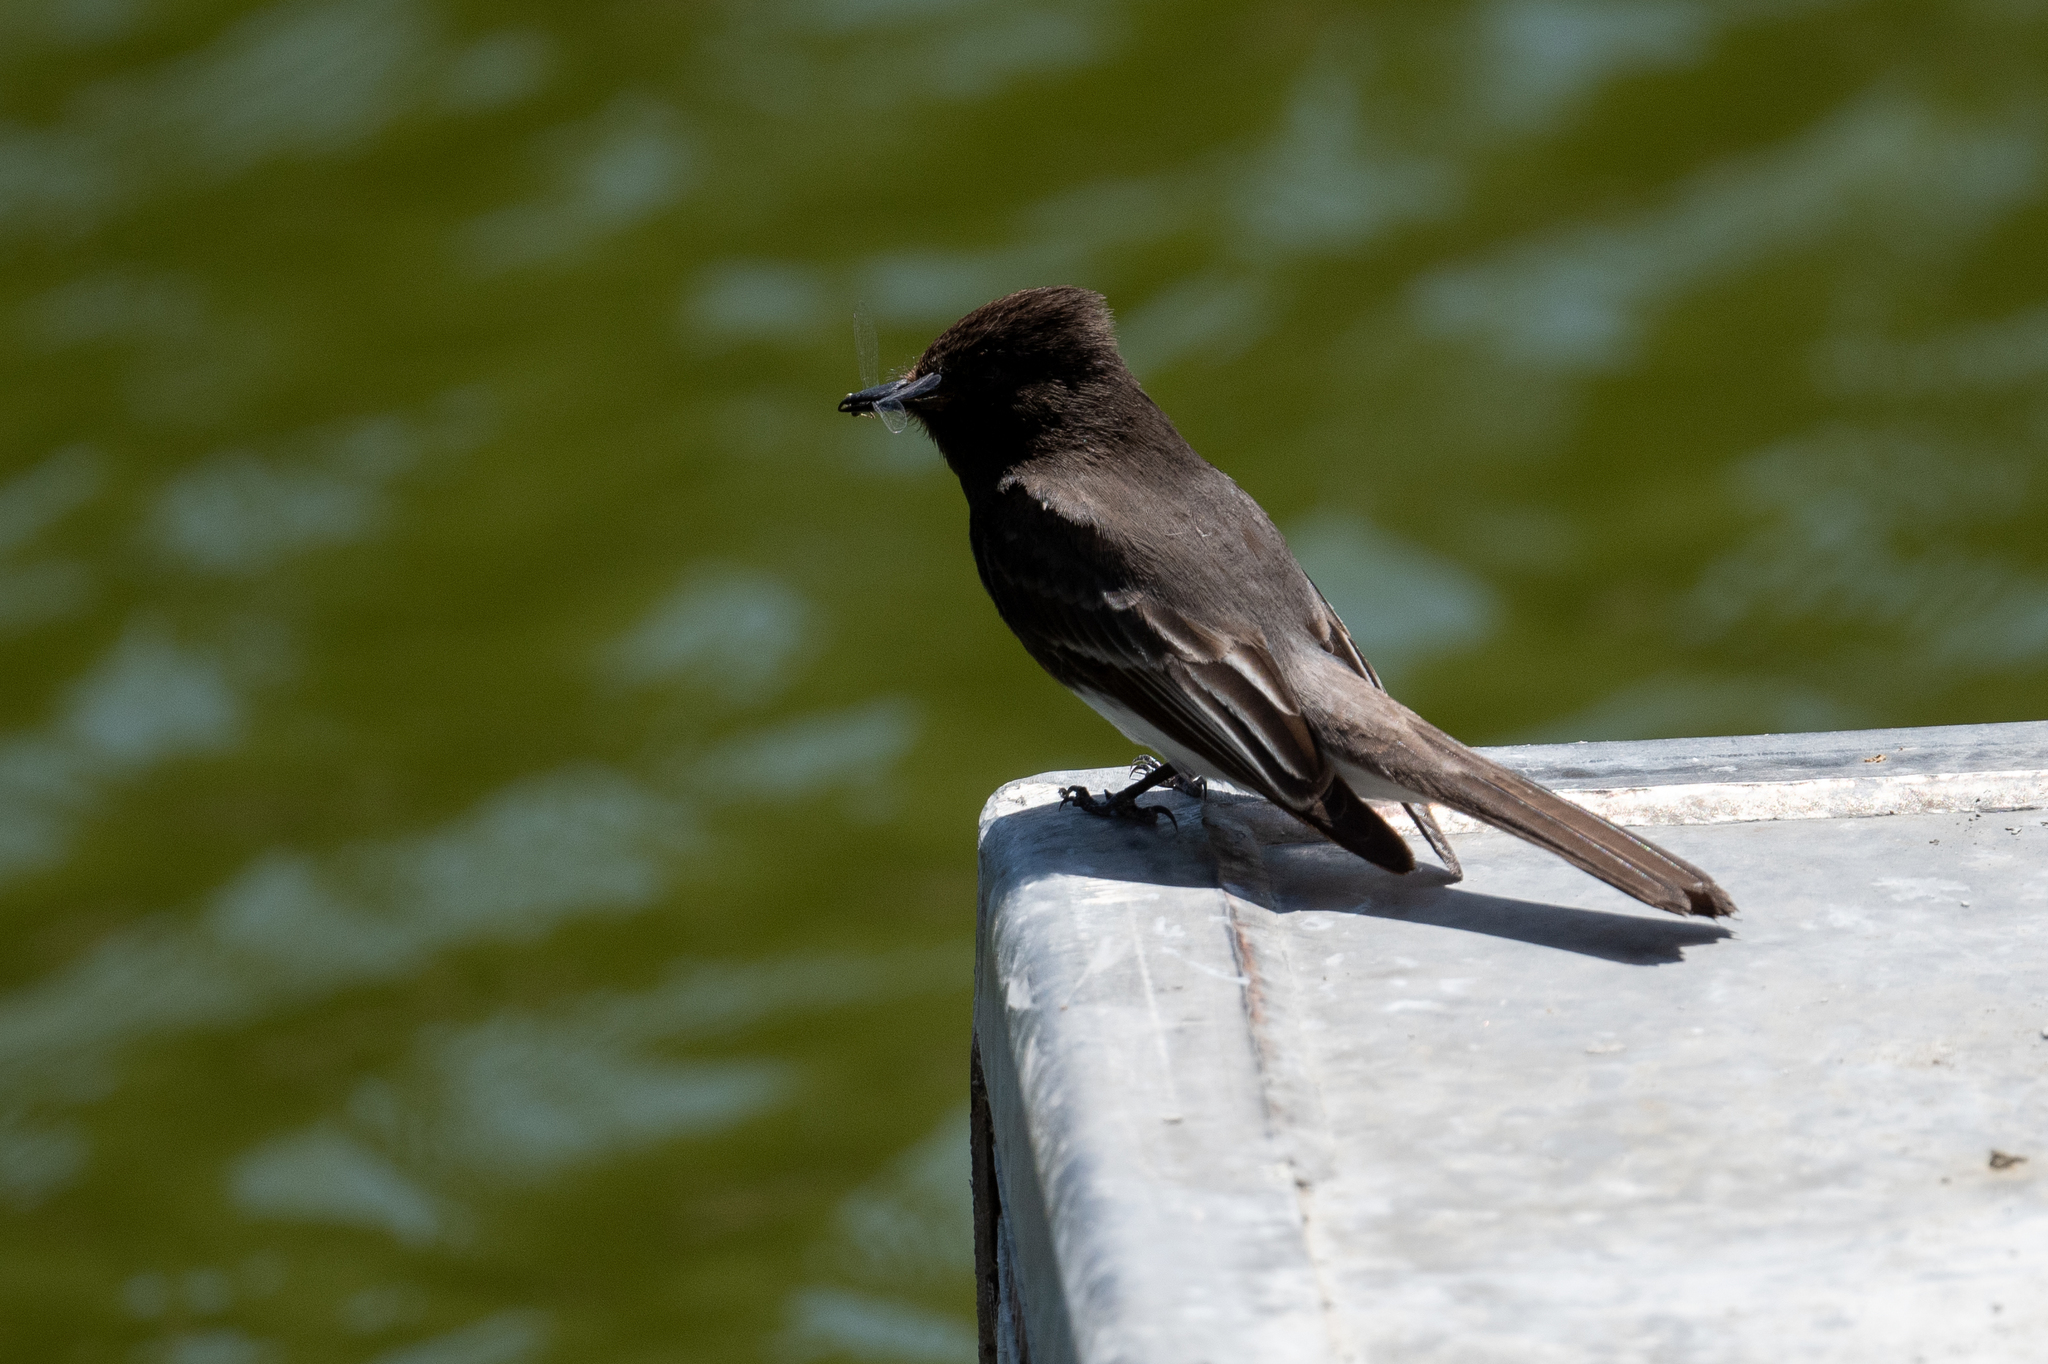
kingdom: Animalia
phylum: Chordata
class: Aves
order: Passeriformes
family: Tyrannidae
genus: Sayornis
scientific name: Sayornis nigricans
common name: Black phoebe
